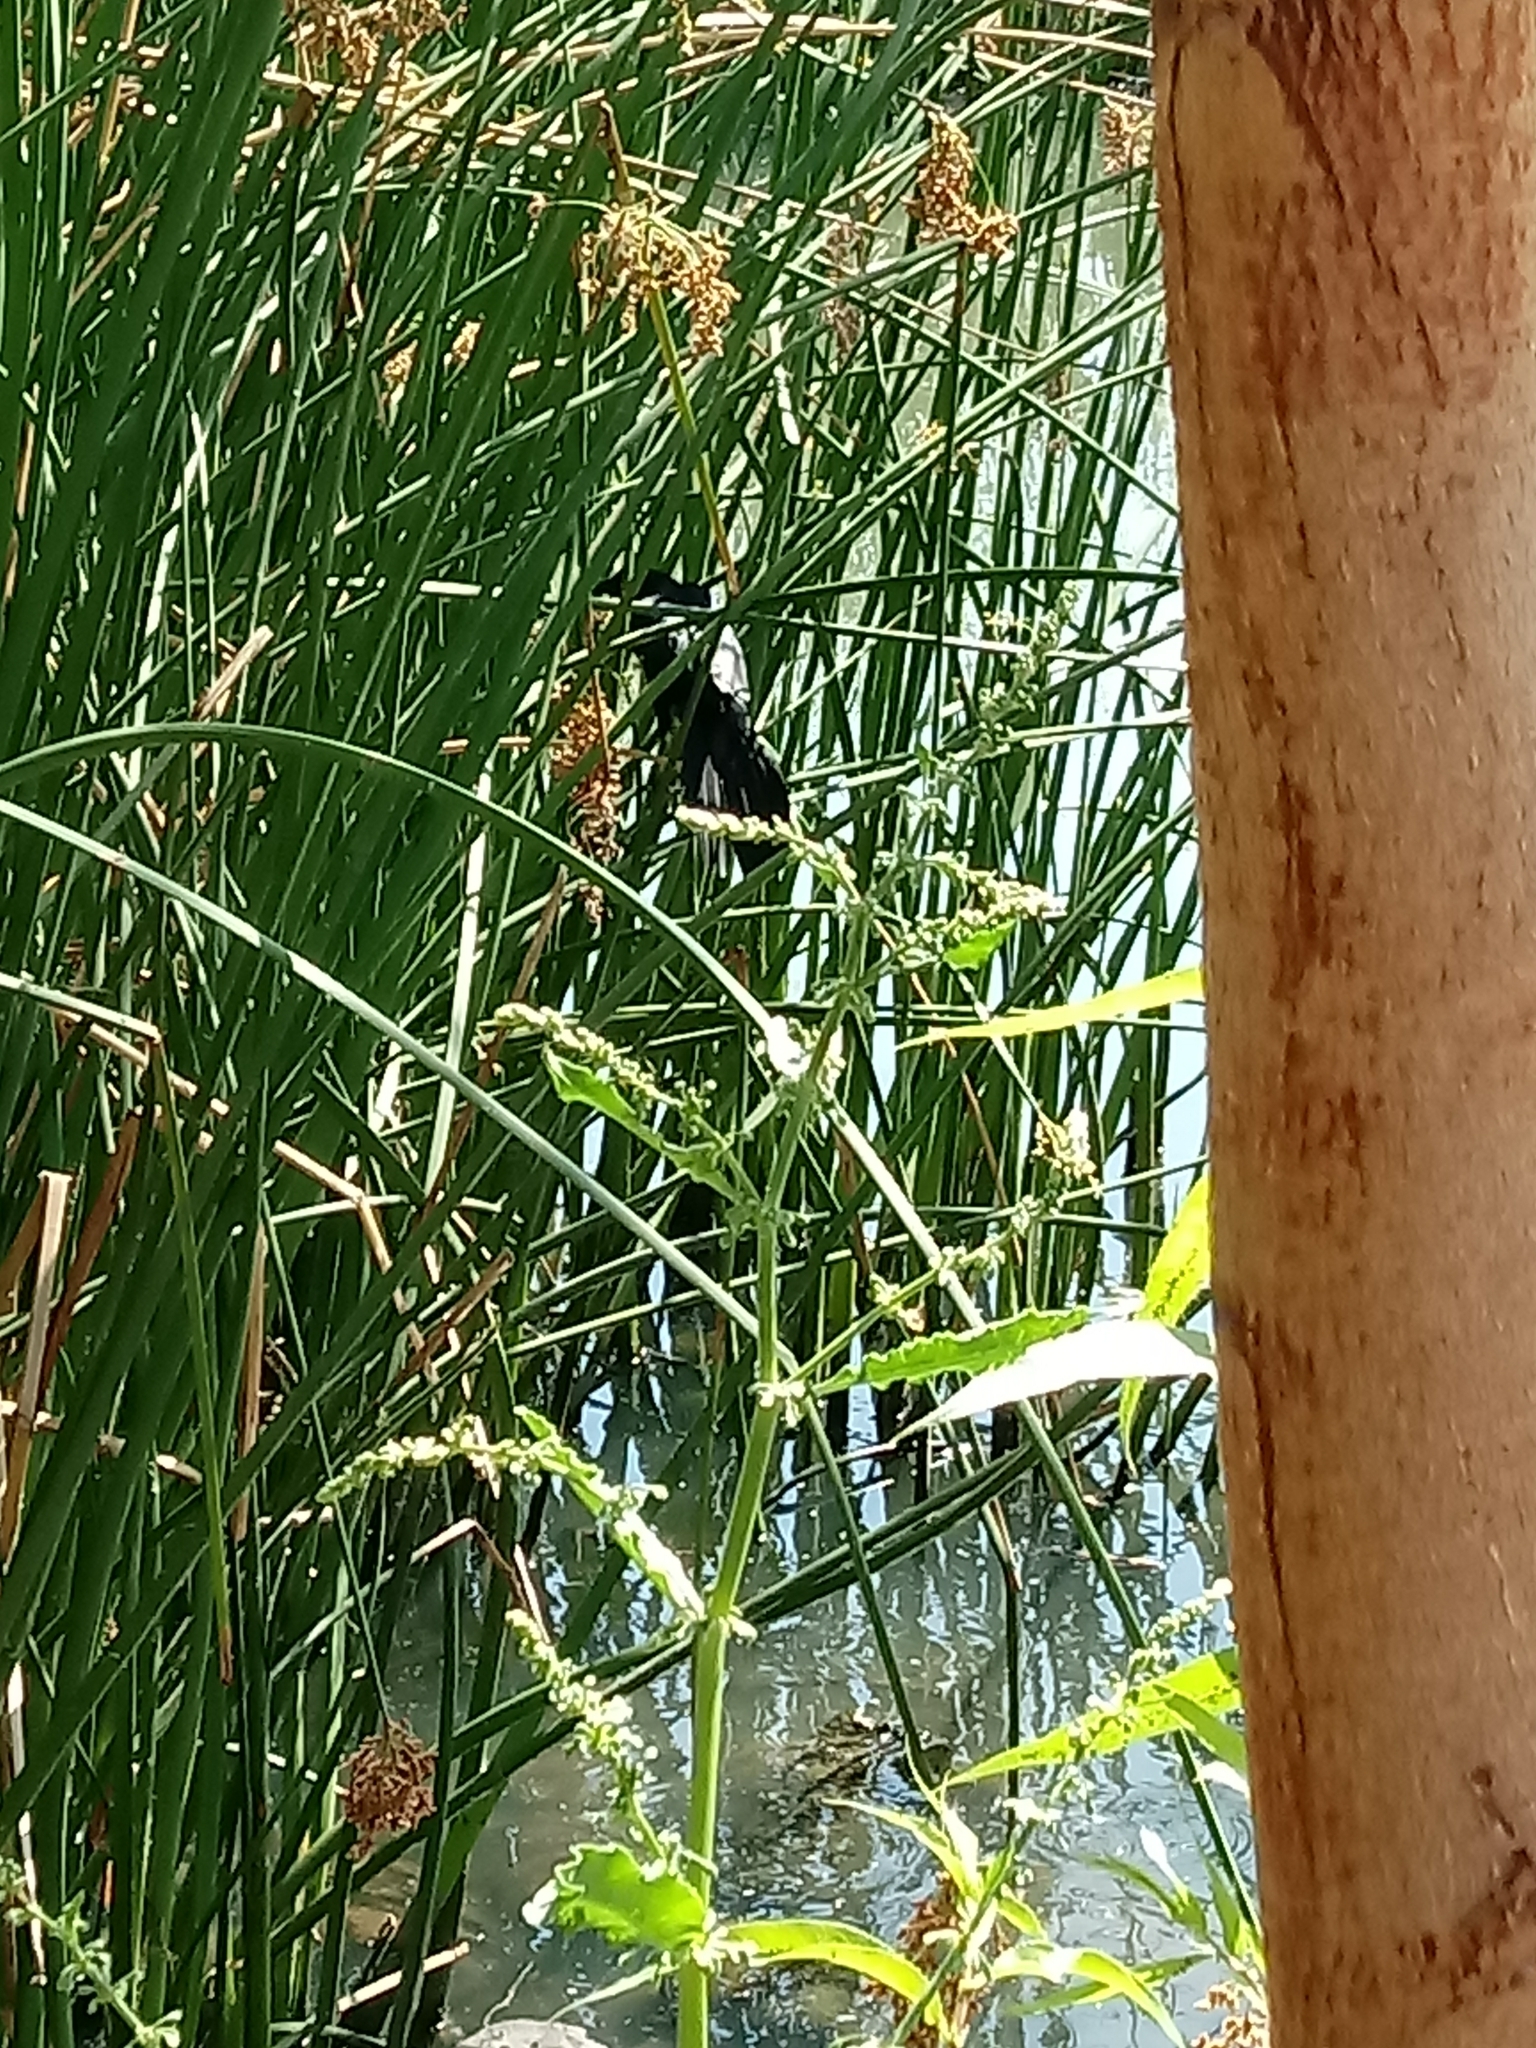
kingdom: Animalia
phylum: Chordata
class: Aves
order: Passeriformes
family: Icteridae
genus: Quiscalus
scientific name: Quiscalus mexicanus
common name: Great-tailed grackle
